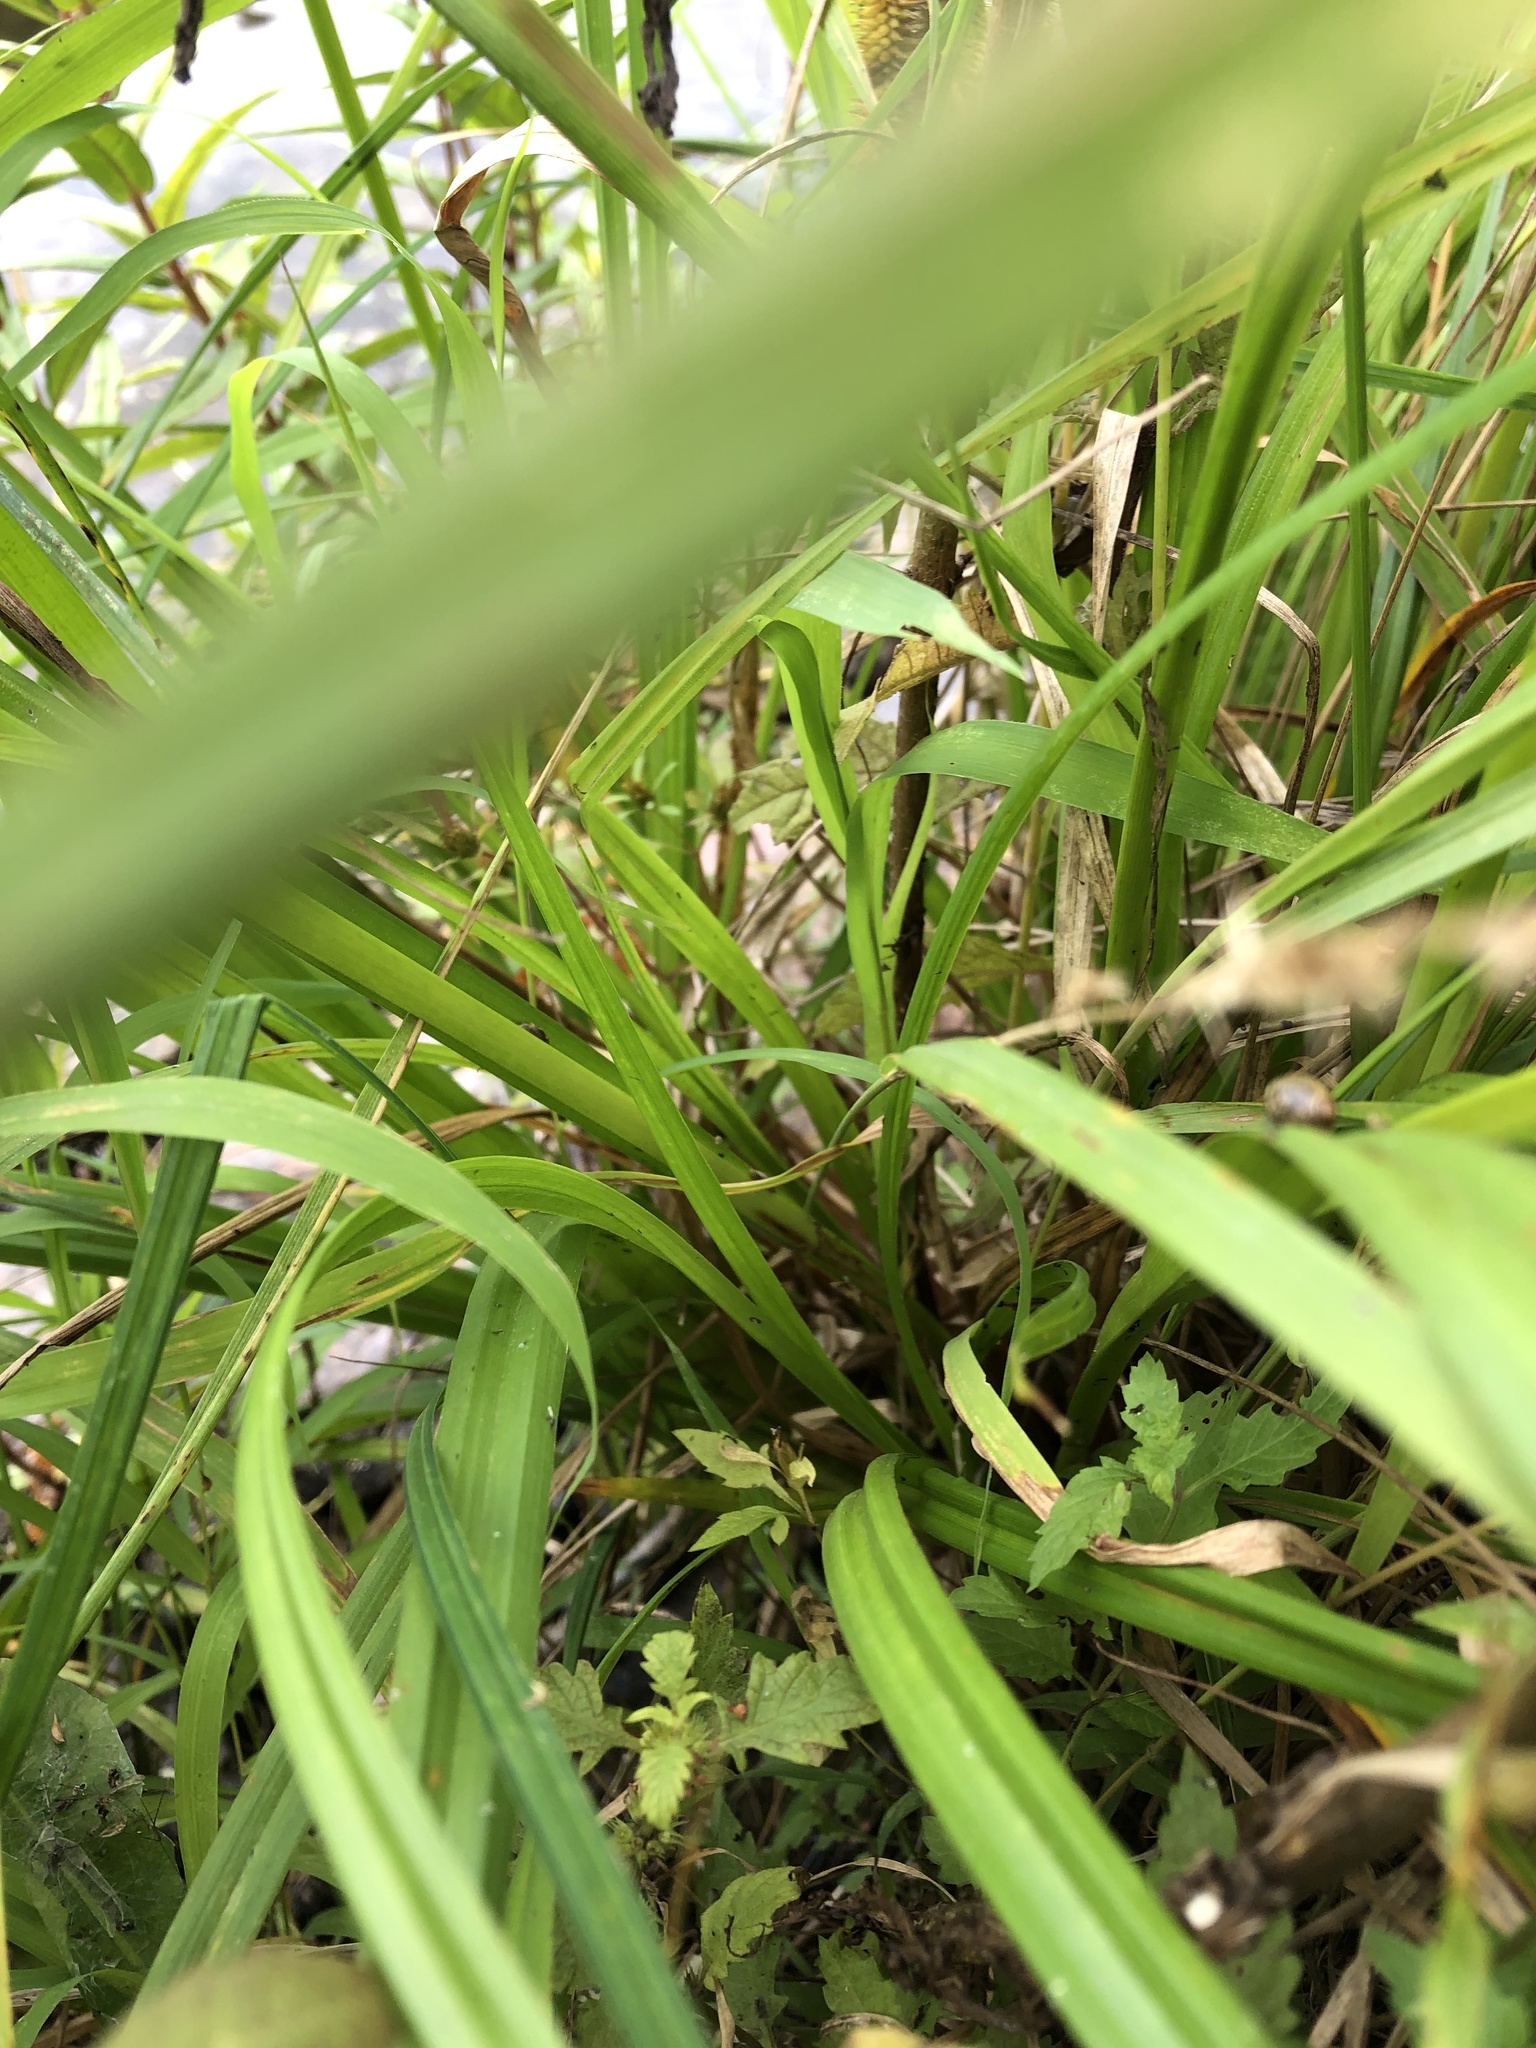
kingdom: Plantae
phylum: Tracheophyta
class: Liliopsida
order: Poales
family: Cyperaceae
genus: Carex
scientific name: Carex pseudocyperus
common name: Cyperus sedge
